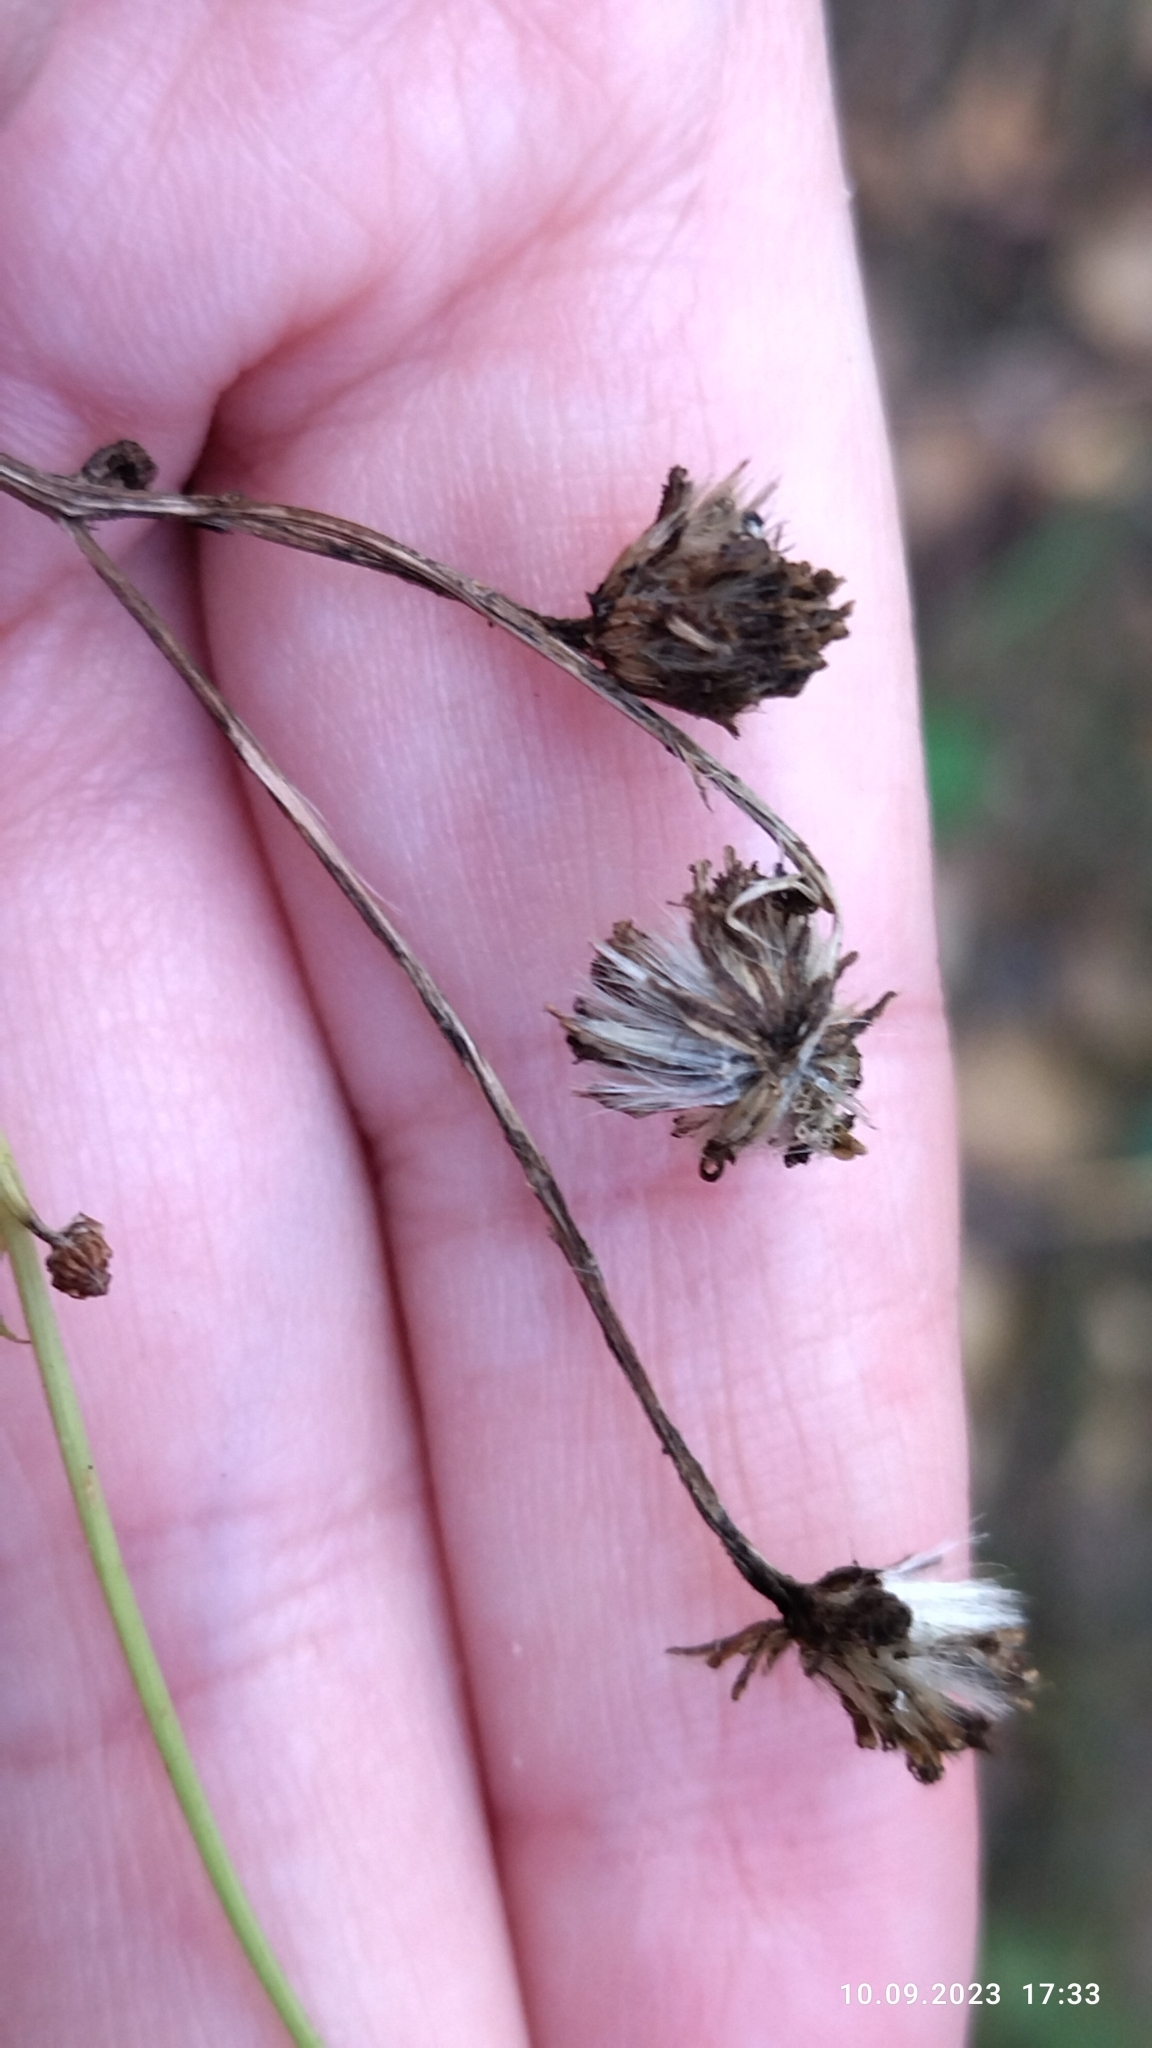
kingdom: Plantae
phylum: Tracheophyta
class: Magnoliopsida
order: Asterales
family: Asteraceae
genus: Jacobaea
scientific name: Jacobaea vulgaris
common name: Stinking willie
